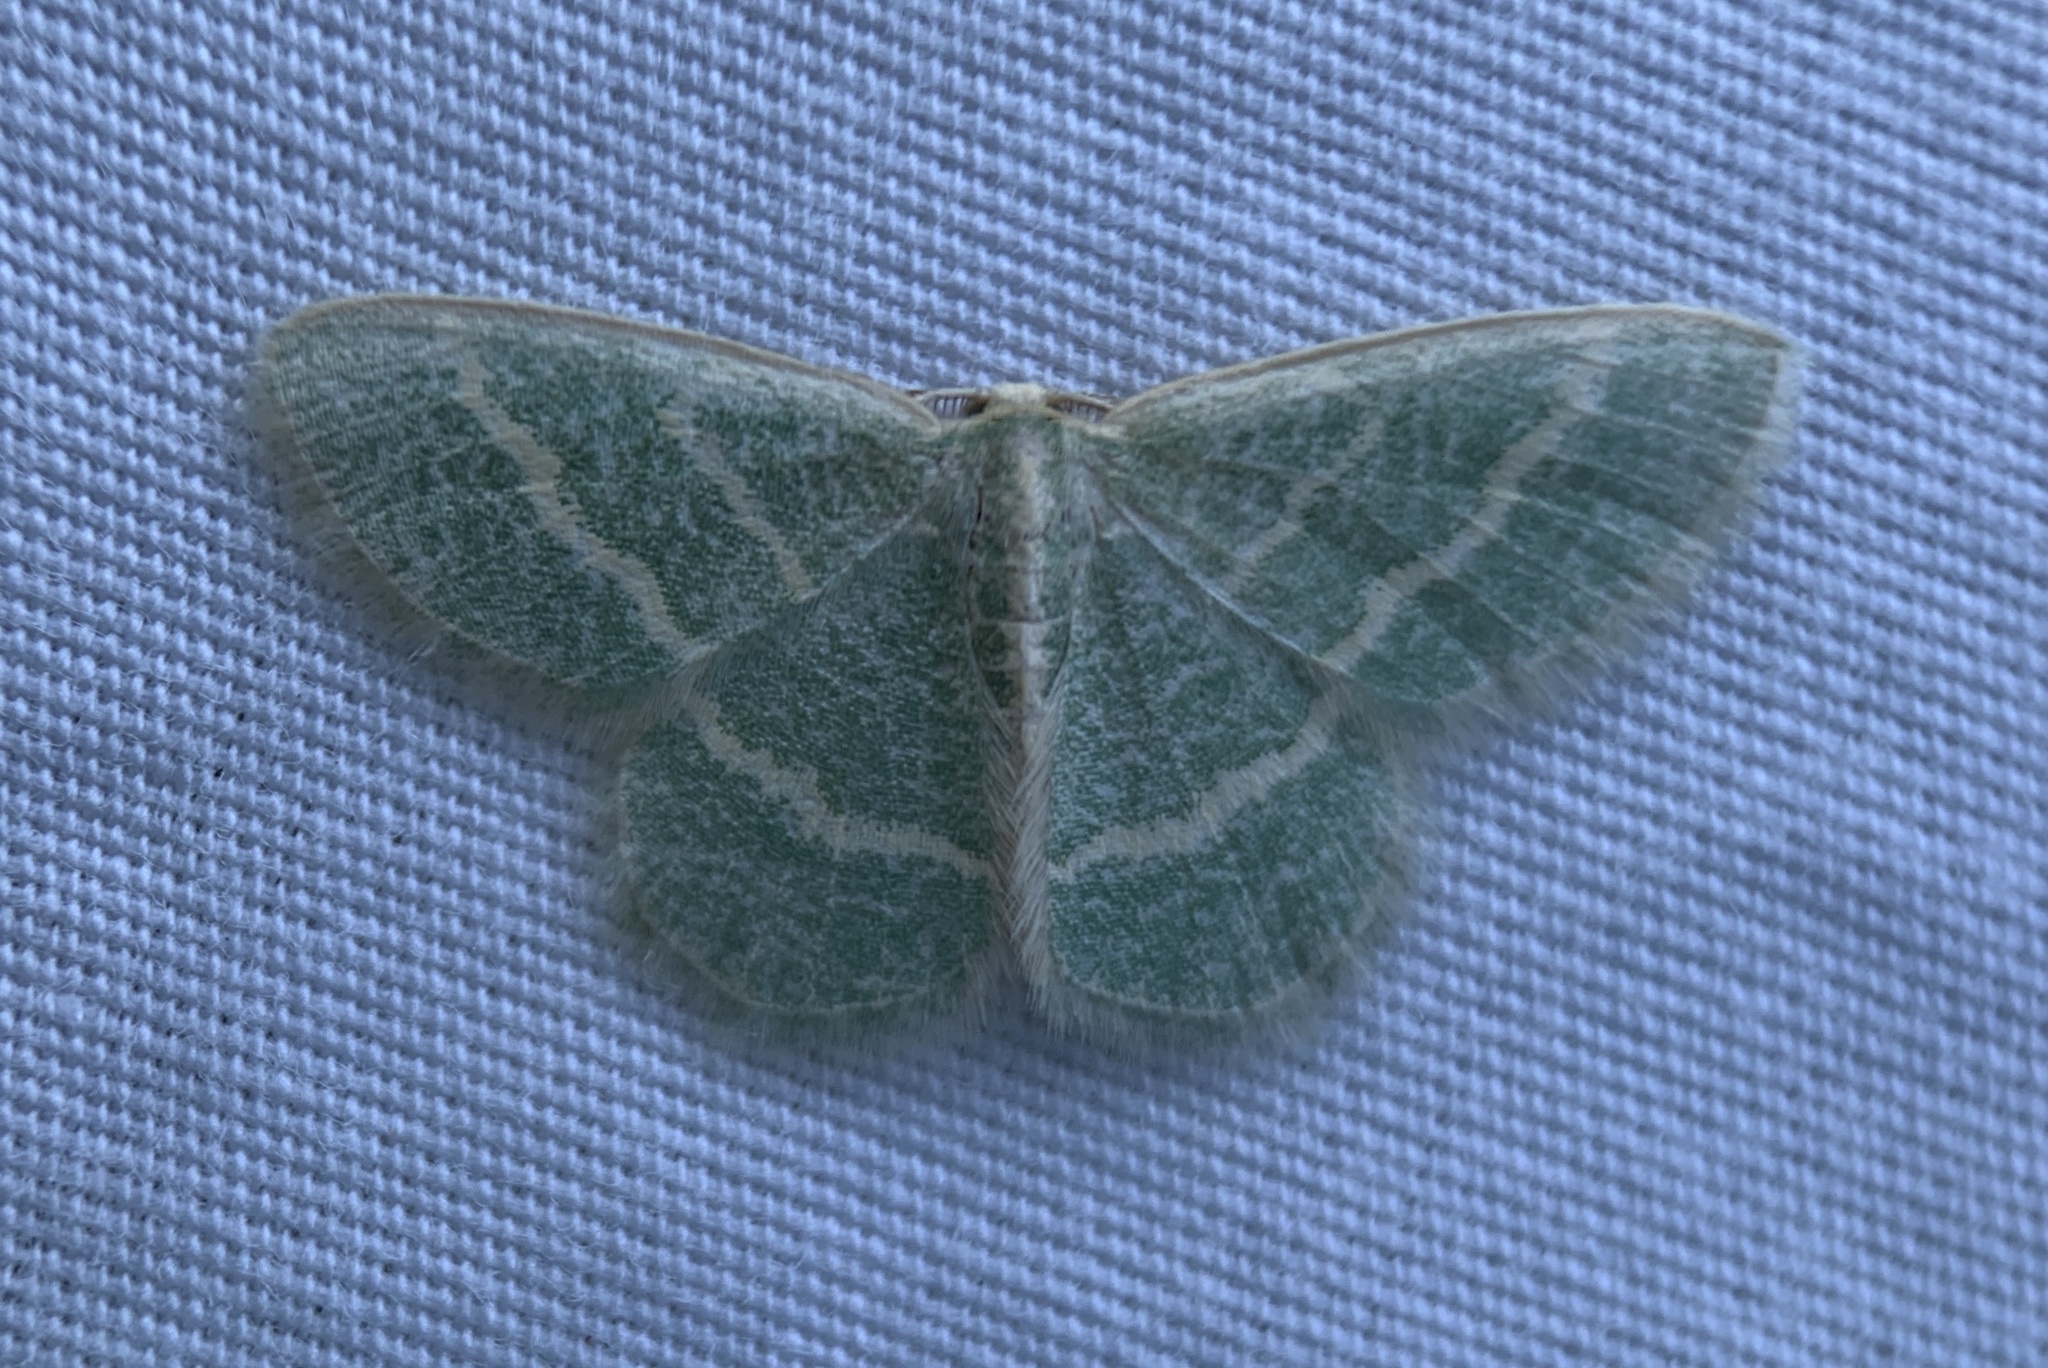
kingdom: Animalia
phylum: Arthropoda
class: Insecta
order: Lepidoptera
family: Geometridae
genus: Chlorochlamys
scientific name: Chlorochlamys chloroleucaria
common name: Blackberry looper
